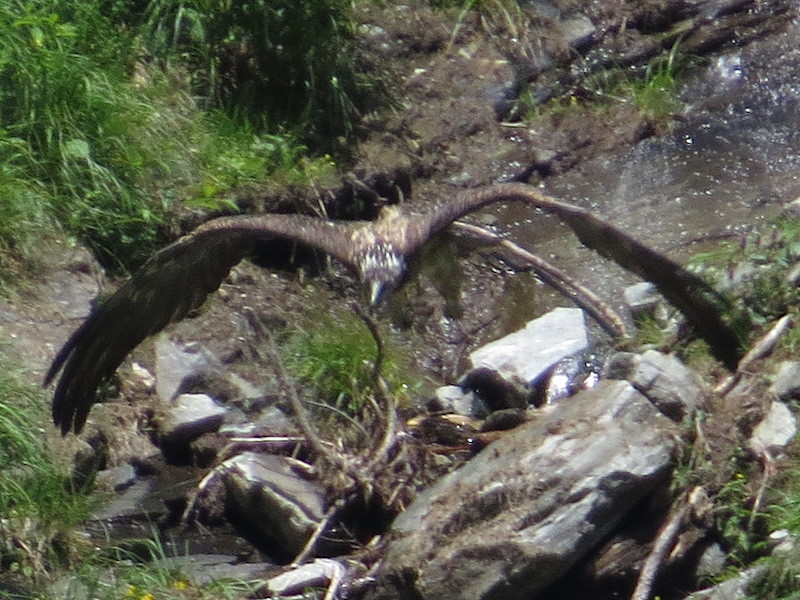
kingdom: Animalia
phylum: Chordata
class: Aves
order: Accipitriformes
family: Accipitridae
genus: Gypaetus
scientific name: Gypaetus barbatus
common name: Bearded vulture
